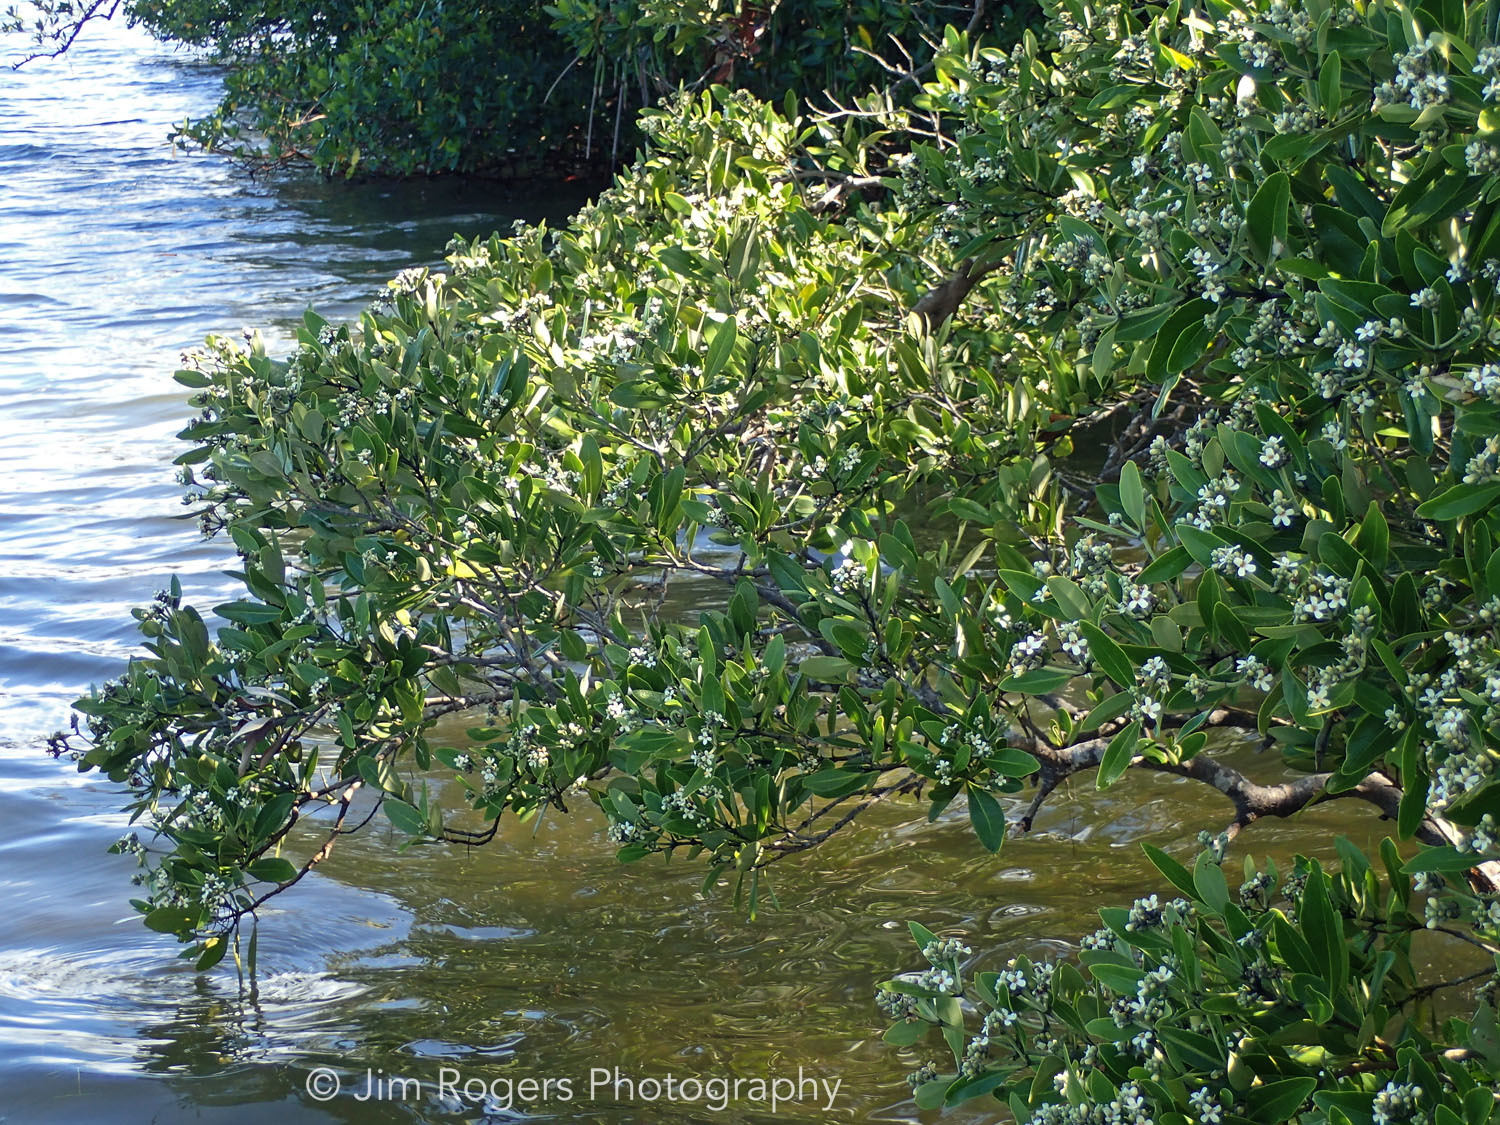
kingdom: Plantae
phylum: Tracheophyta
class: Magnoliopsida
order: Lamiales
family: Acanthaceae
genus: Avicennia
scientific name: Avicennia germinans
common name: Black mangrove
